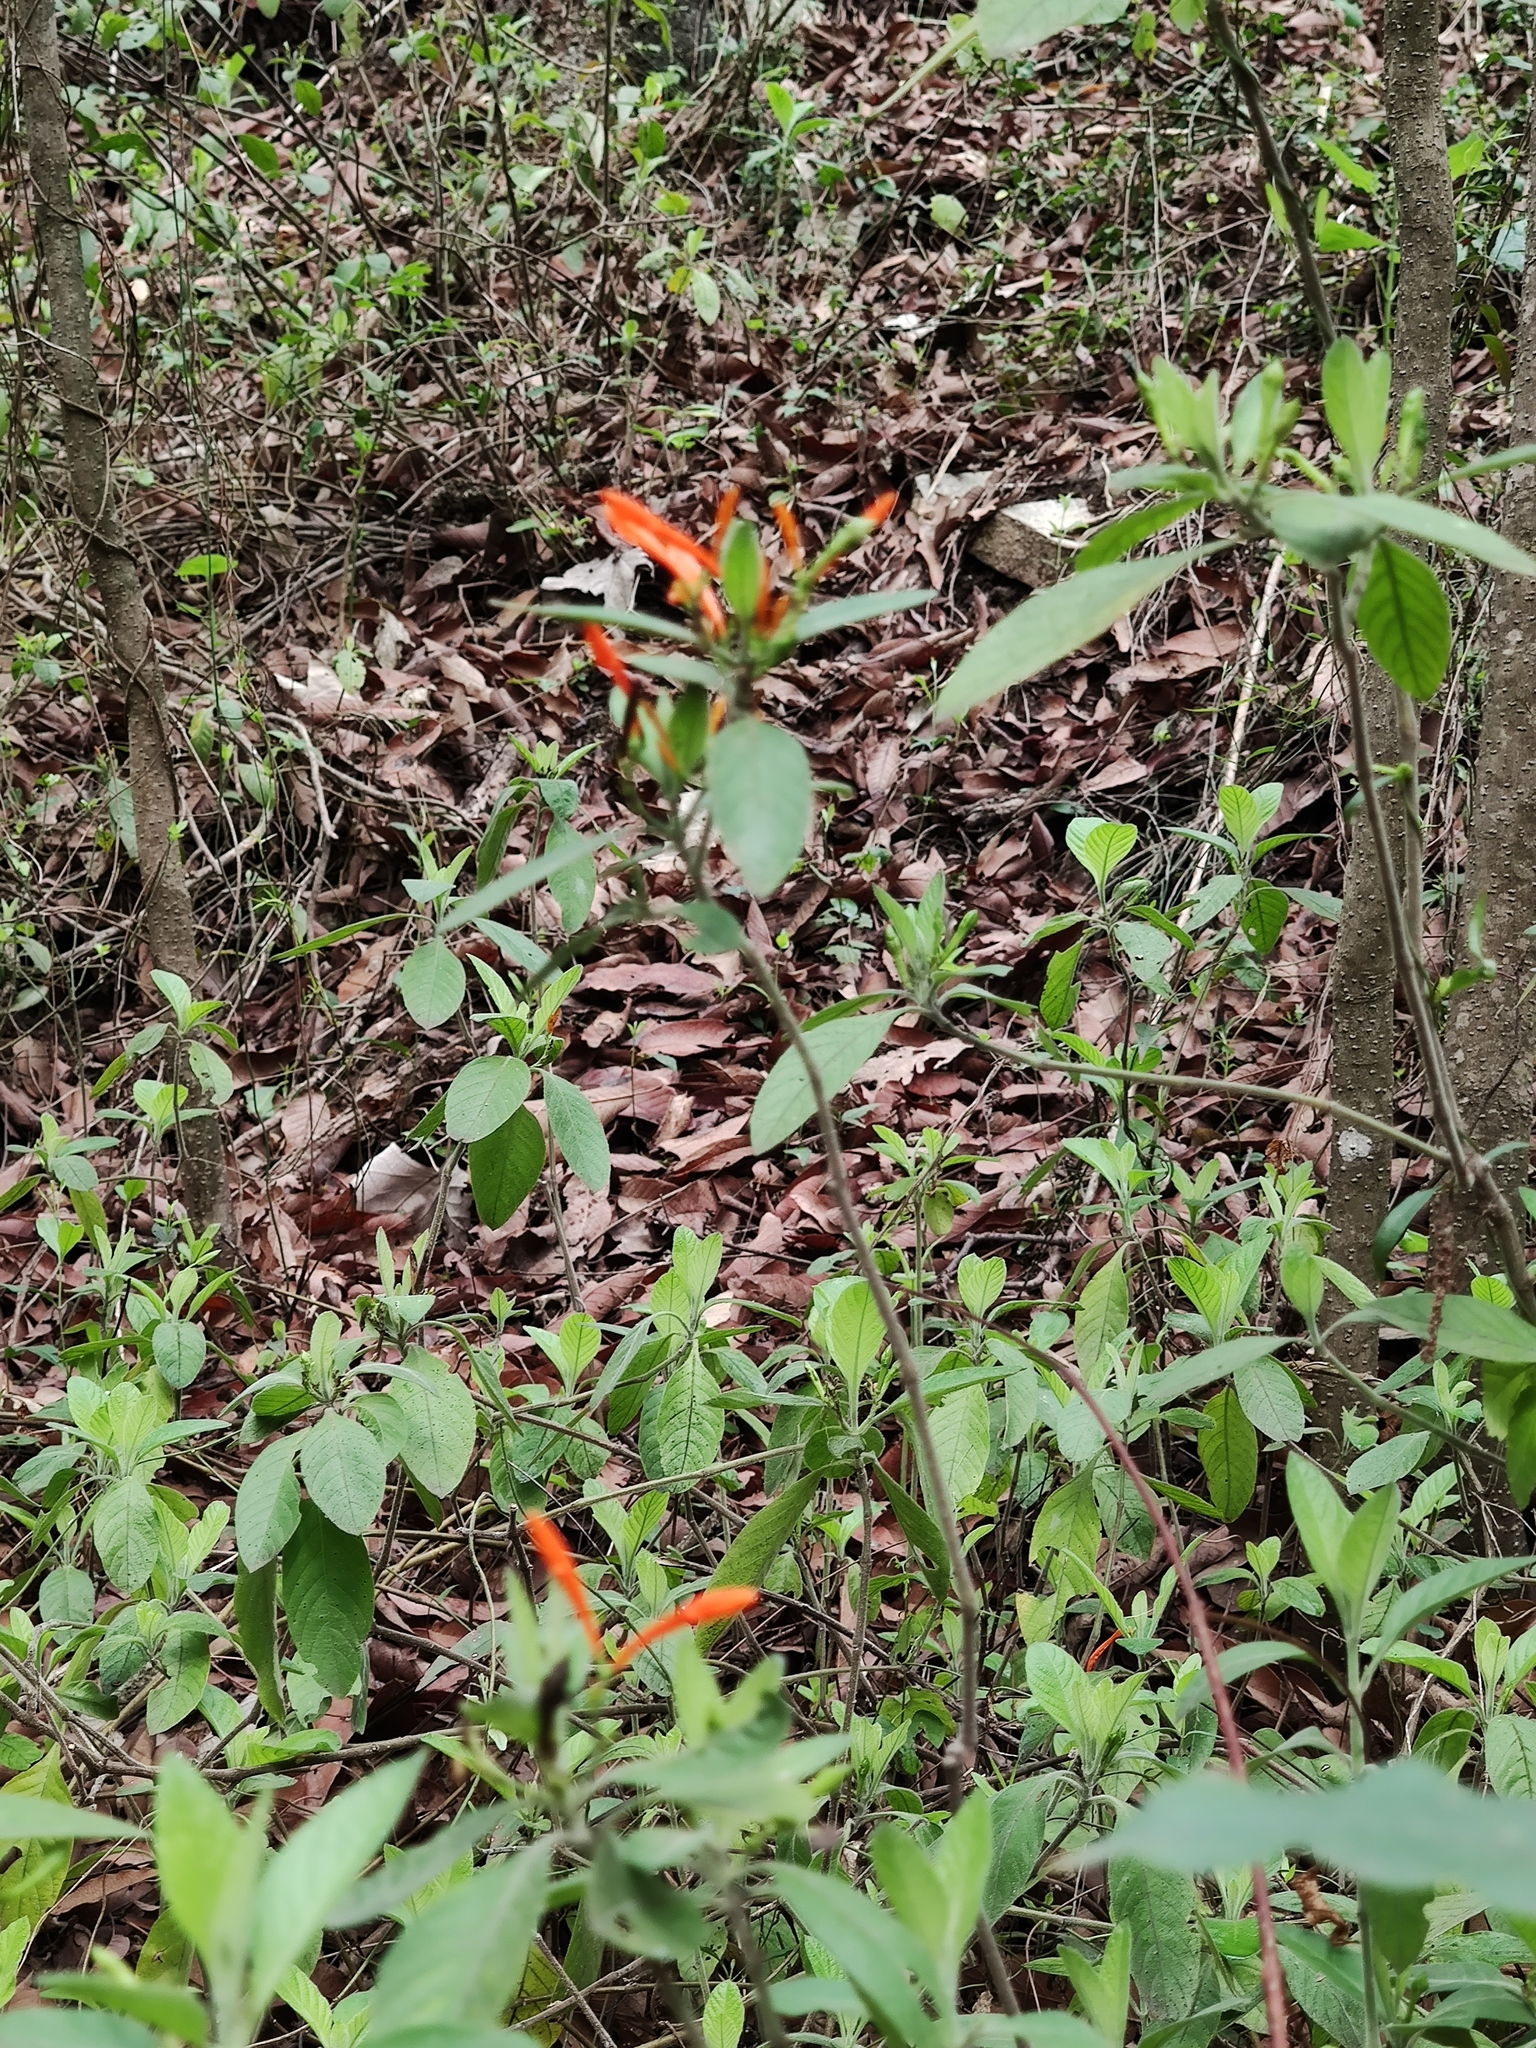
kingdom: Plantae
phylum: Tracheophyta
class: Magnoliopsida
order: Lamiales
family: Acanthaceae
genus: Justicia
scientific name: Justicia spicigera
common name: Mohintli
